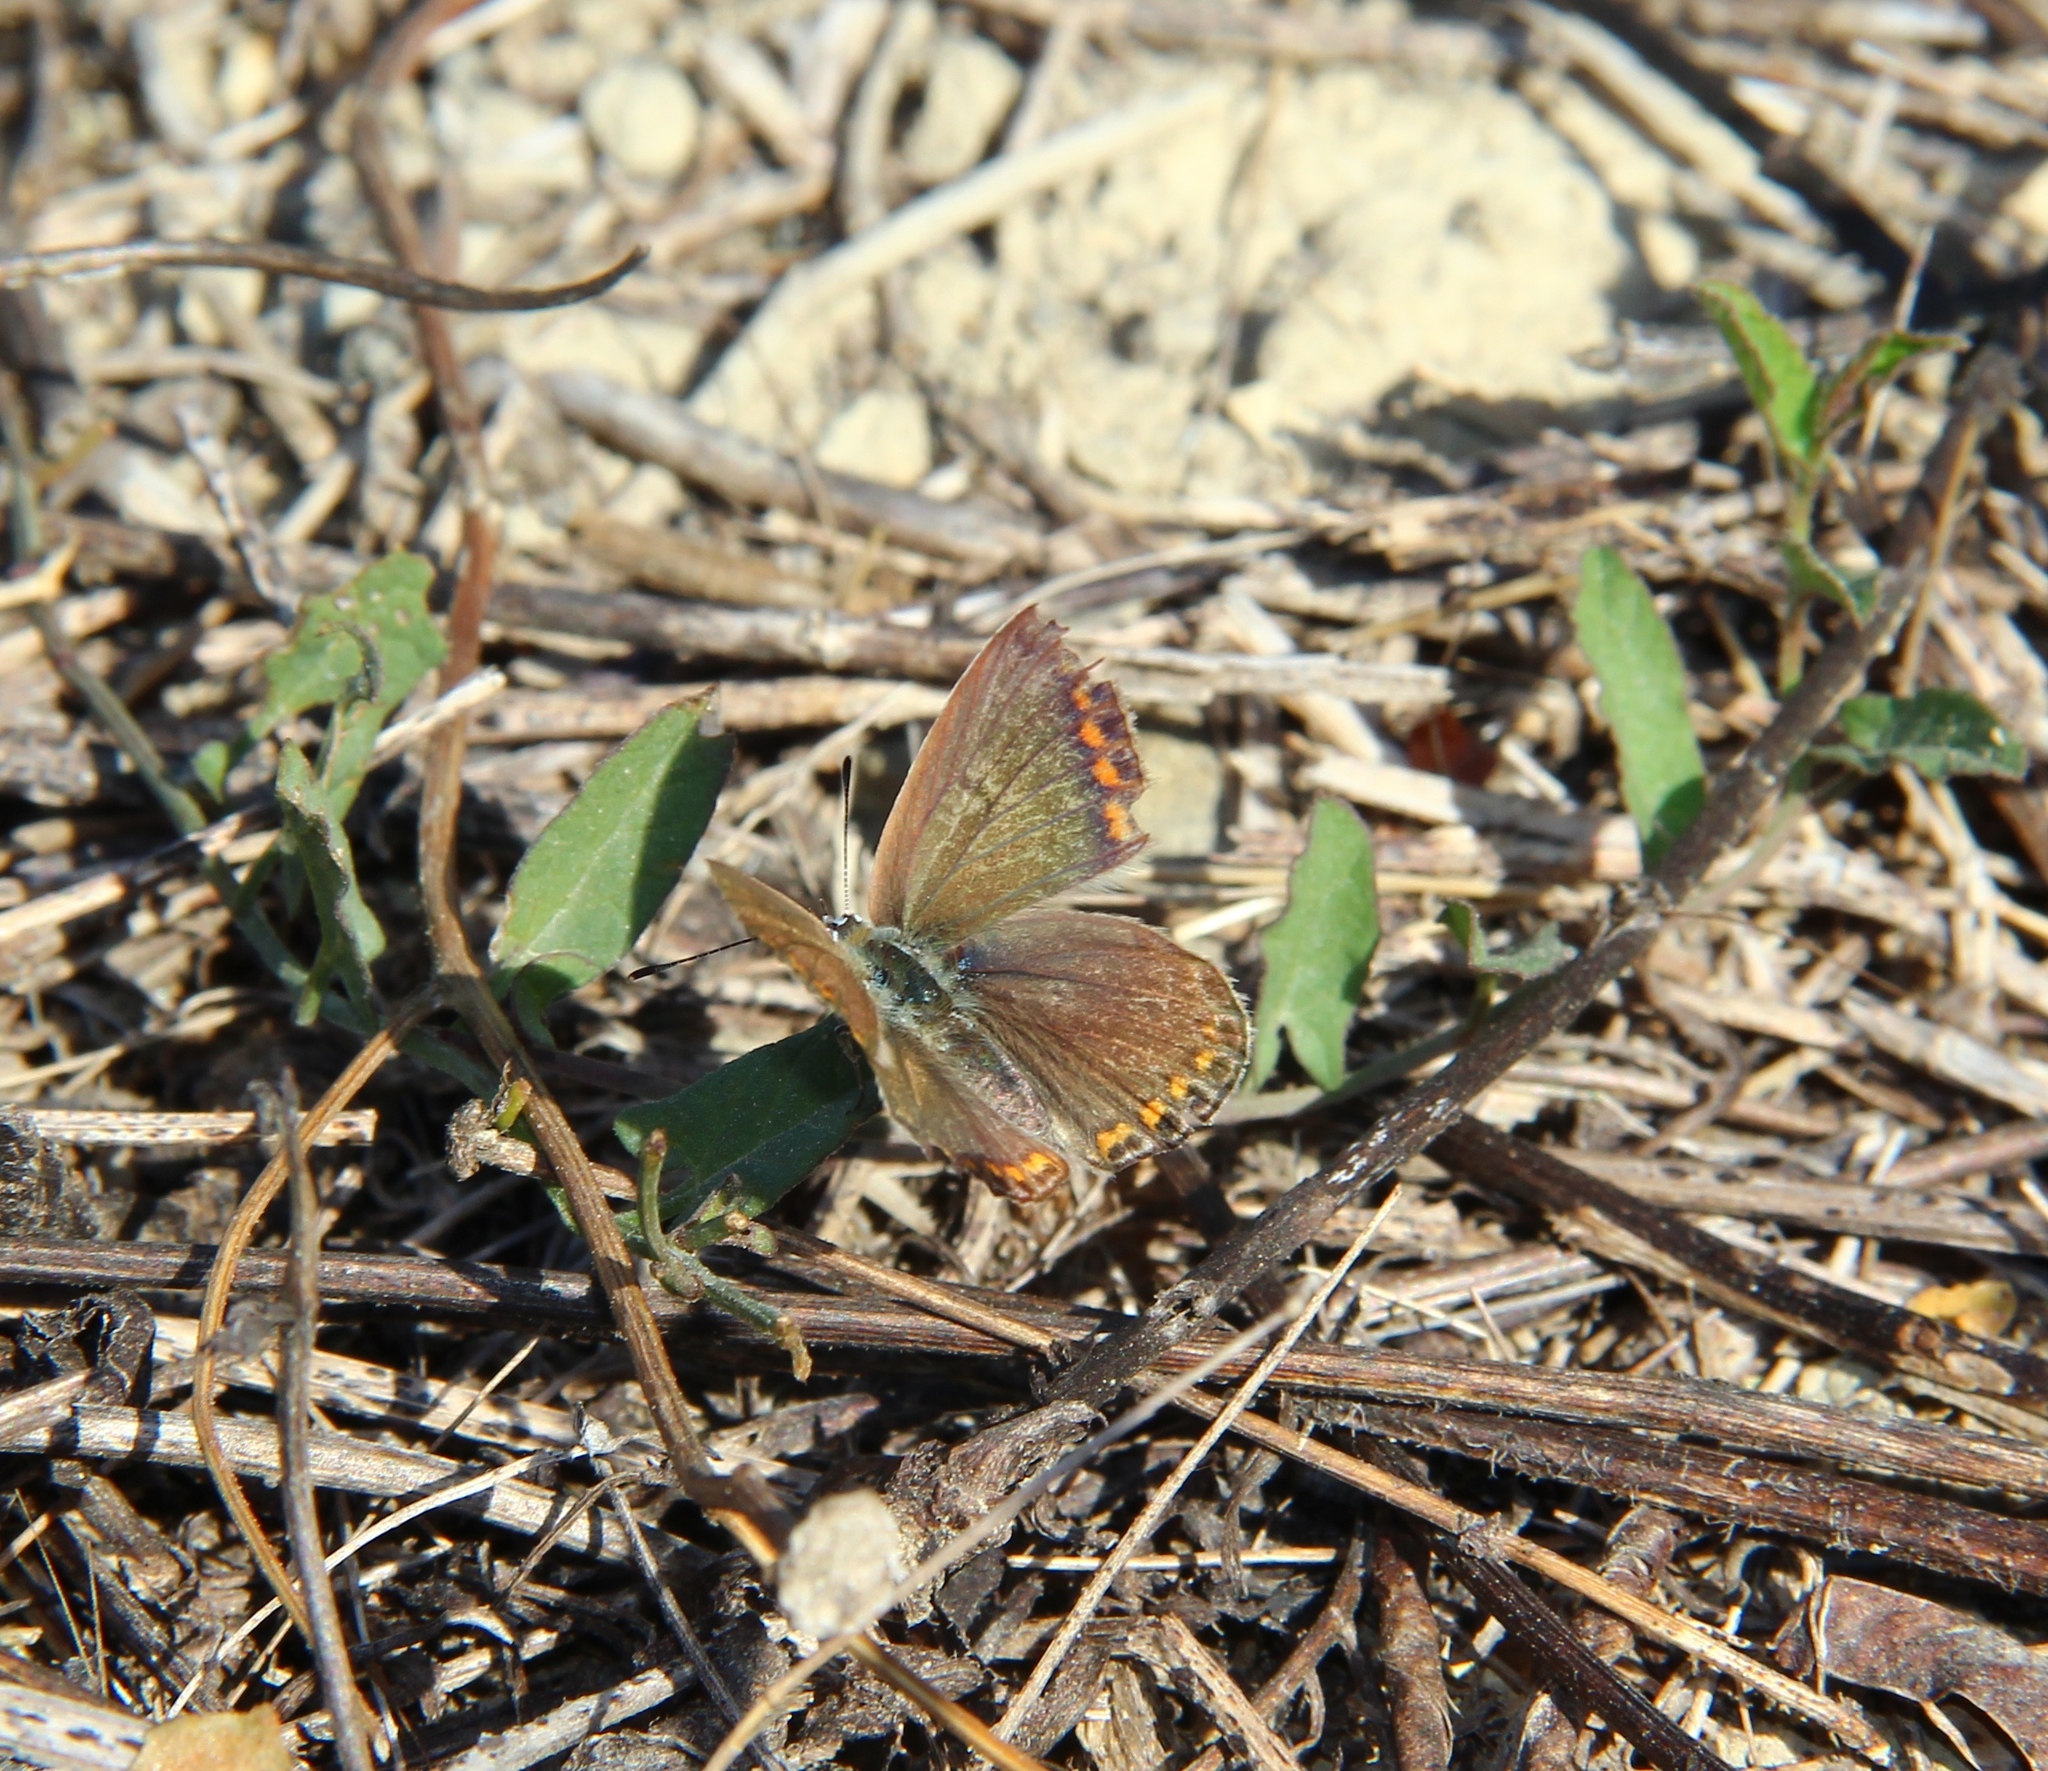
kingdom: Animalia
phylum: Arthropoda
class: Insecta
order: Lepidoptera
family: Lycaenidae
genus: Polyommatus
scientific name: Polyommatus icarus
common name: Common blue
